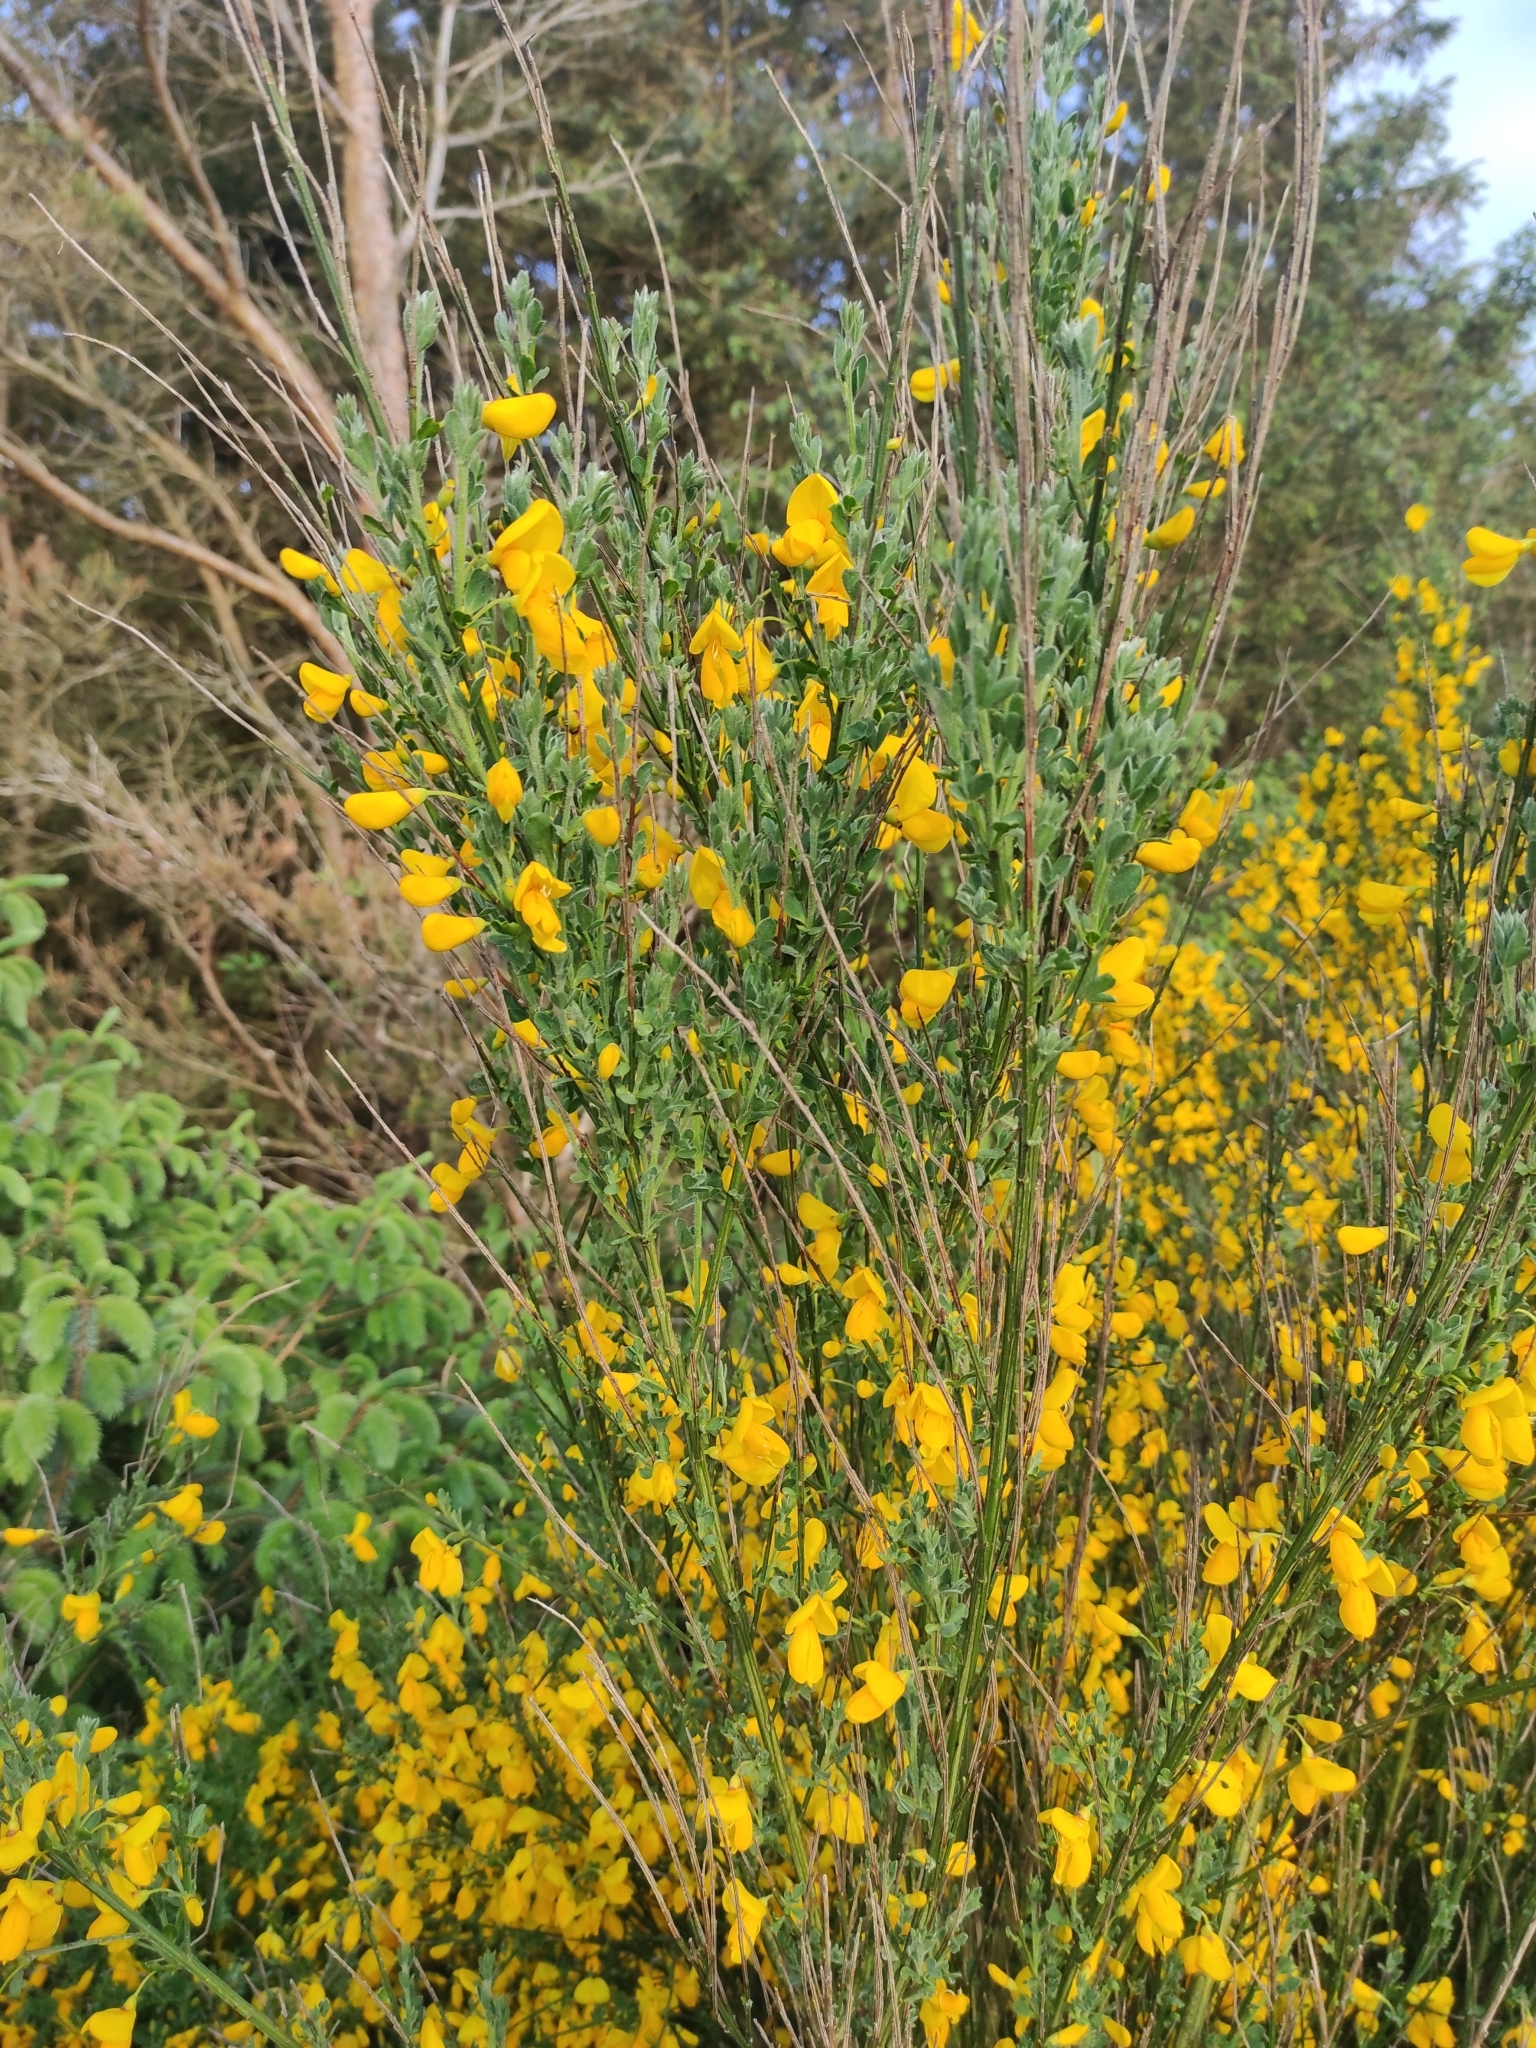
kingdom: Plantae
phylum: Tracheophyta
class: Magnoliopsida
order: Fabales
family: Fabaceae
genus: Cytisus
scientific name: Cytisus scoparius
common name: Scotch broom
